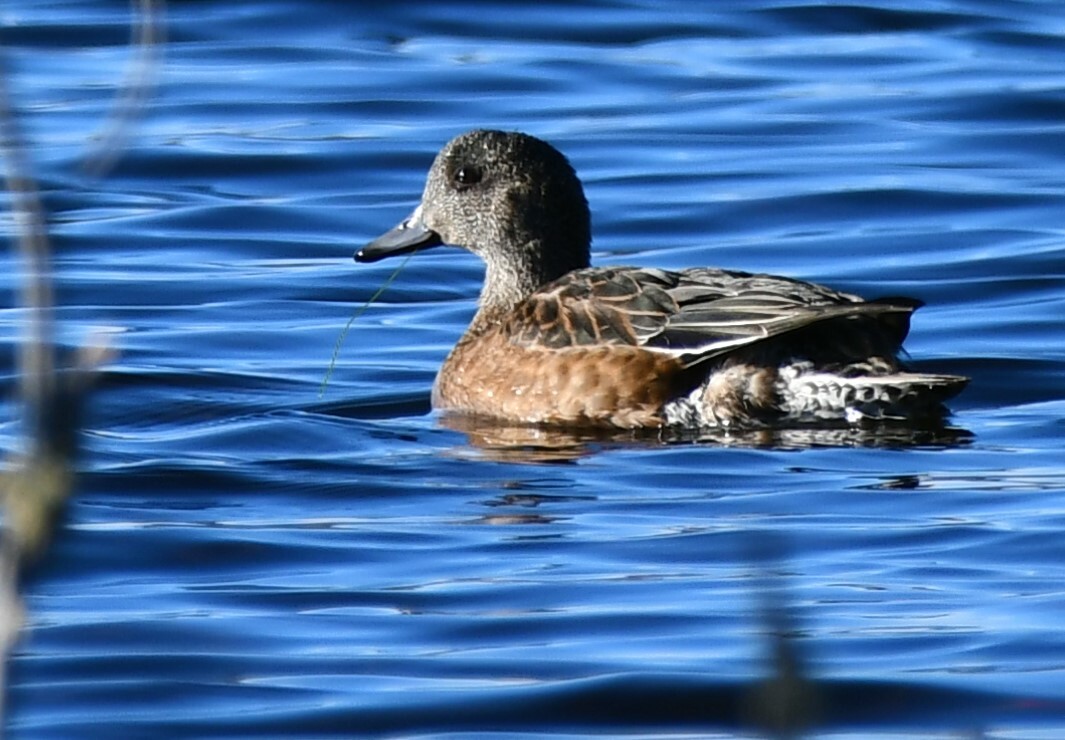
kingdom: Animalia
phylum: Chordata
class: Aves
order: Anseriformes
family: Anatidae
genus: Mareca
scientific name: Mareca americana
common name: American wigeon
